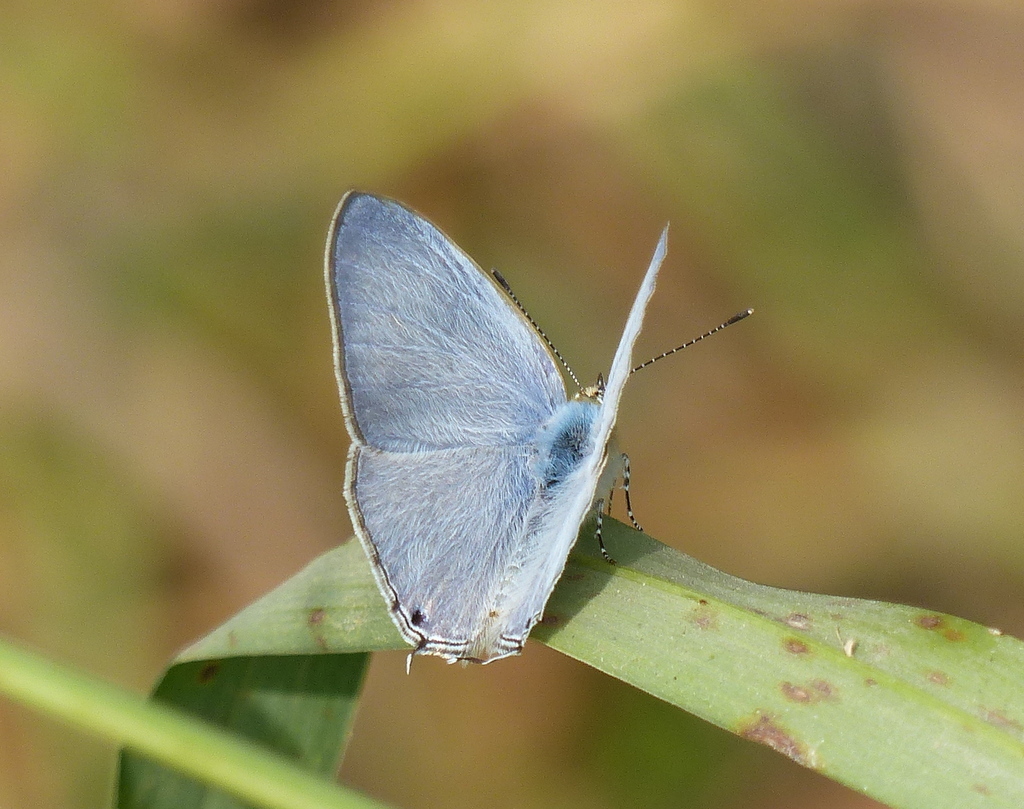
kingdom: Animalia
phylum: Arthropoda
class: Insecta
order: Lepidoptera
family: Lycaenidae
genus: Catochrysops
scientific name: Catochrysops strabo
